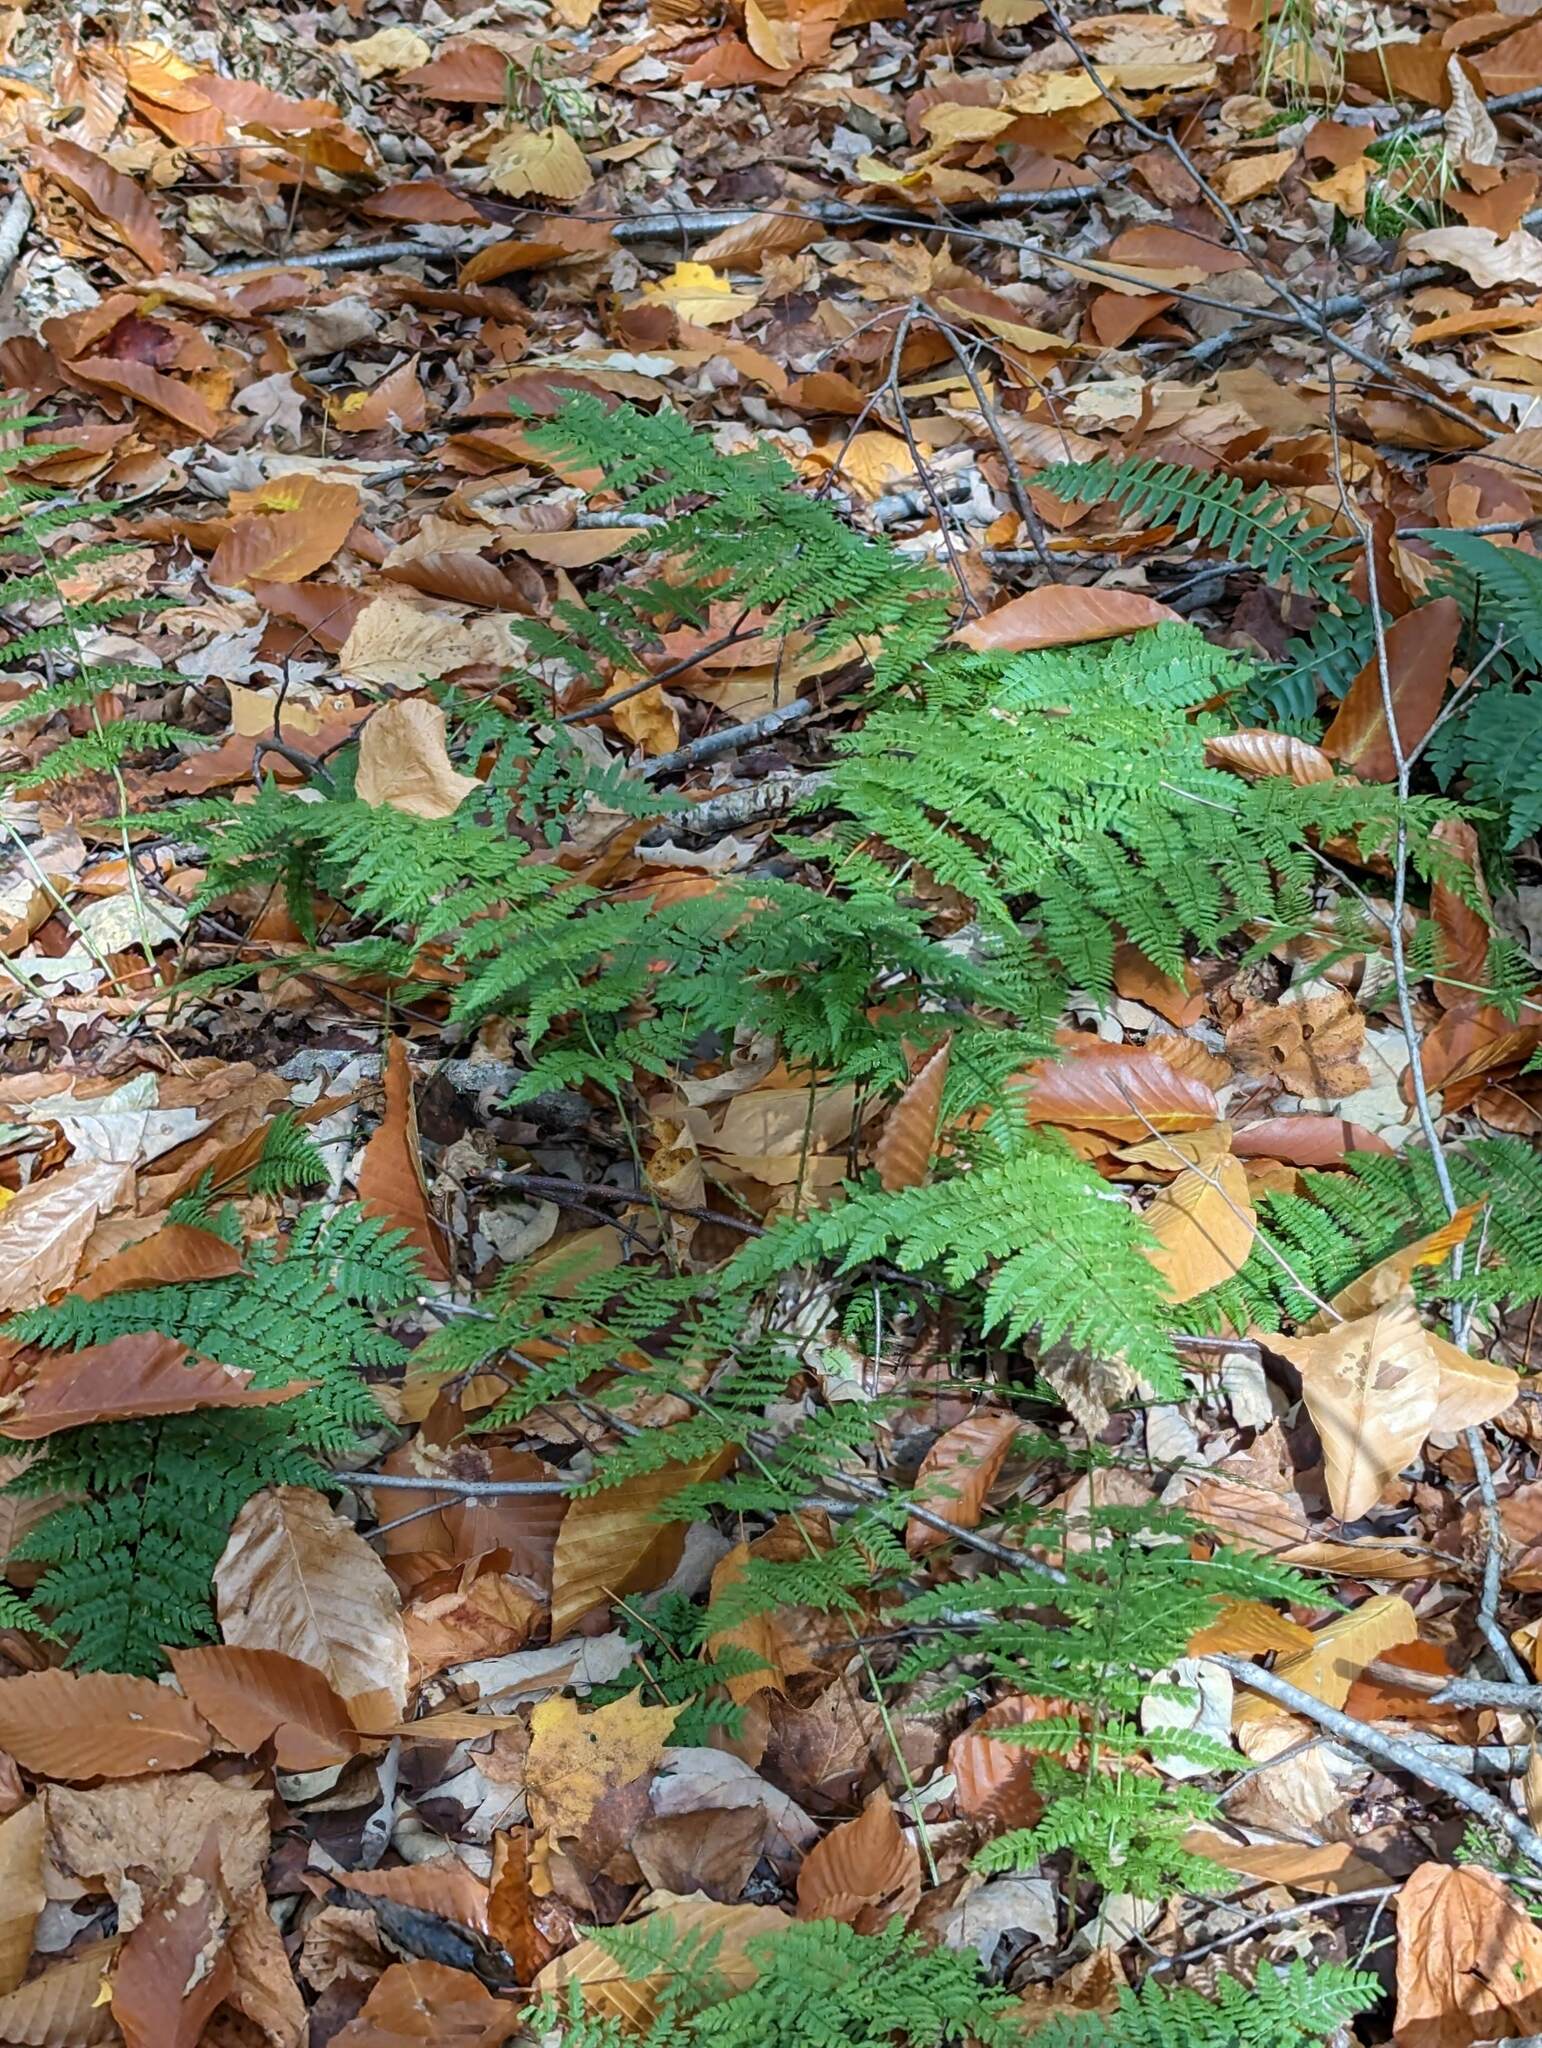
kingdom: Plantae
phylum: Tracheophyta
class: Polypodiopsida
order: Polypodiales
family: Dryopteridaceae
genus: Dryopteris
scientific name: Dryopteris intermedia
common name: Evergreen wood fern
